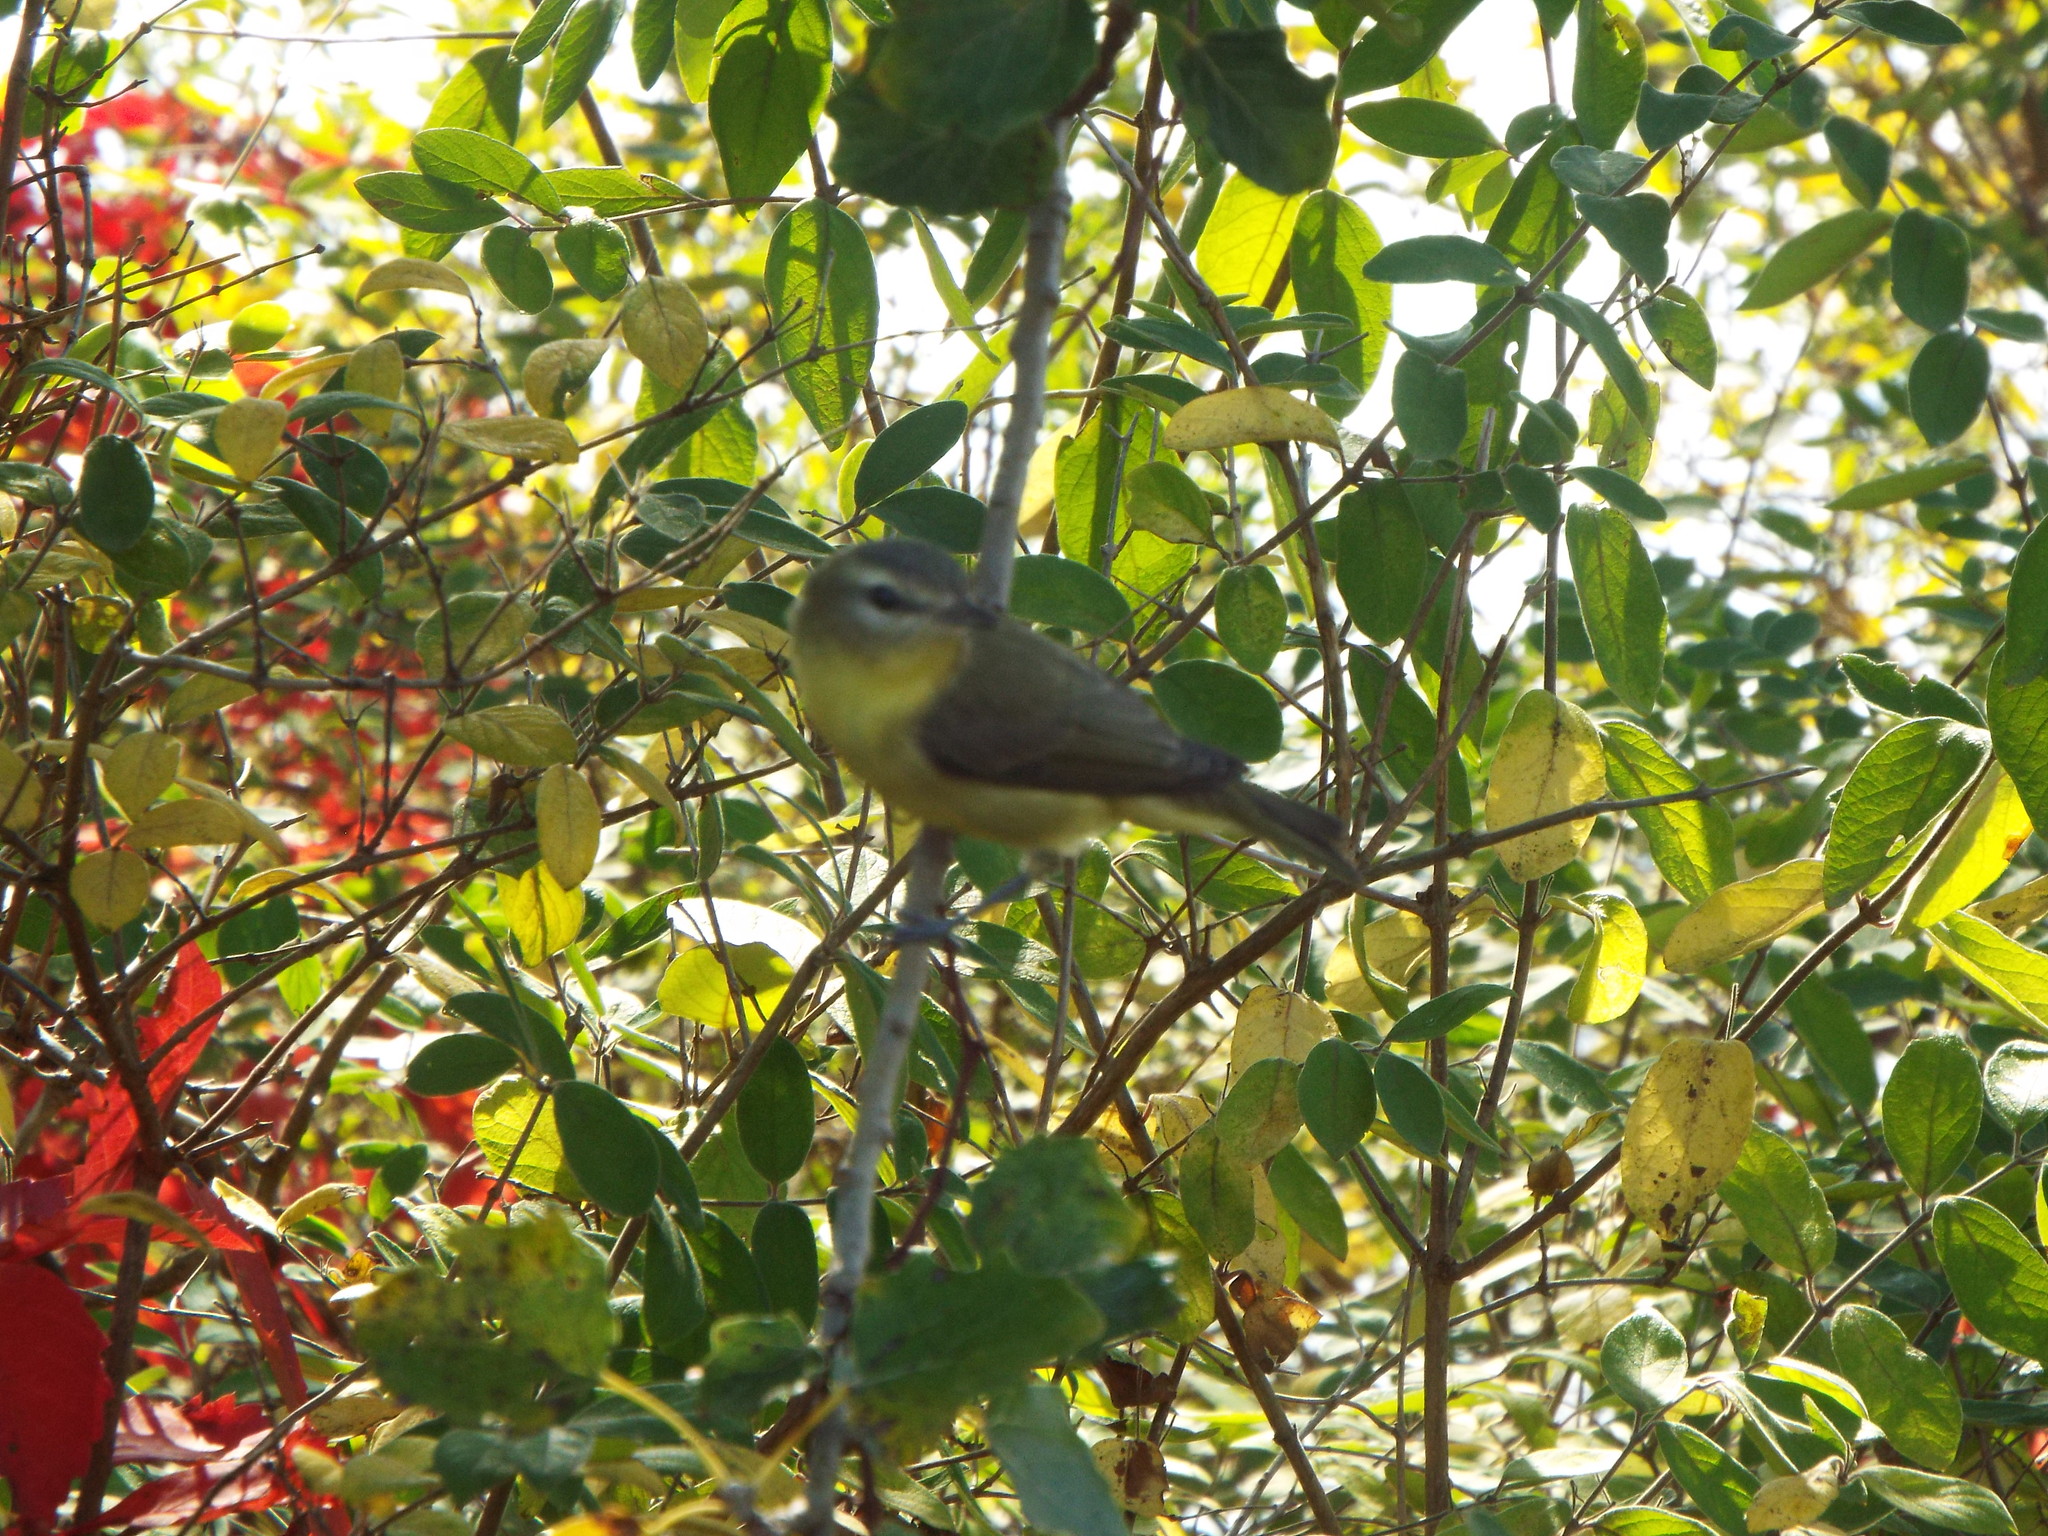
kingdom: Animalia
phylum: Chordata
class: Aves
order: Passeriformes
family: Vireonidae
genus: Vireo
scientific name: Vireo philadelphicus
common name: Philadelphia vireo
